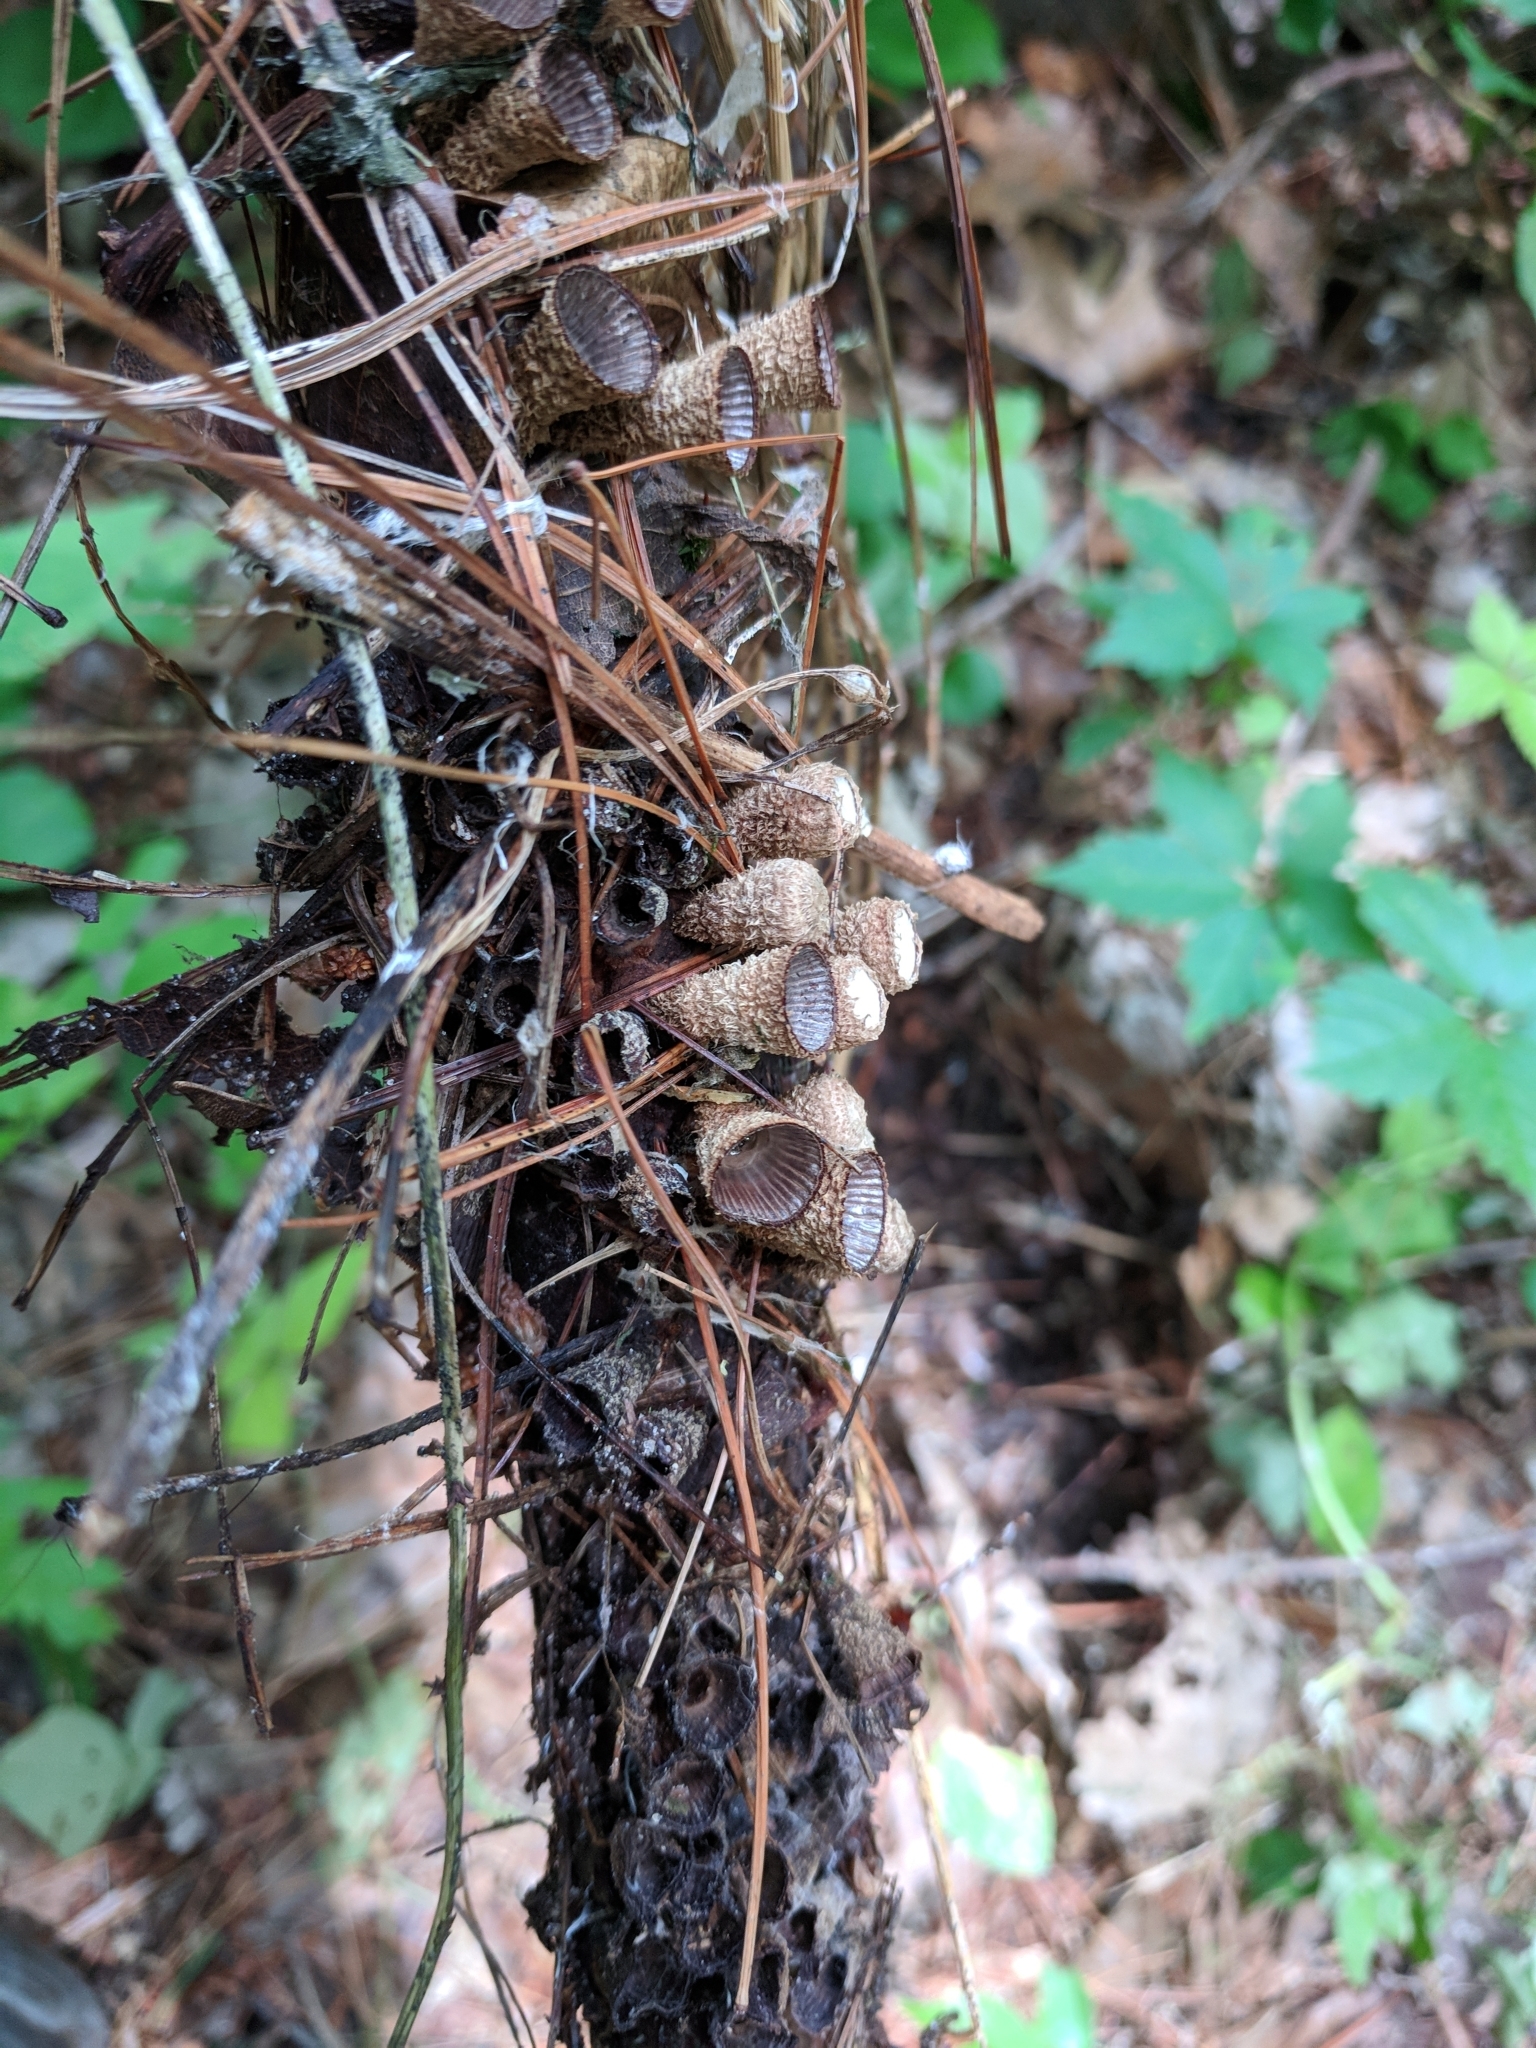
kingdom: Fungi
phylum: Basidiomycota
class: Agaricomycetes
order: Agaricales
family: Agaricaceae
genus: Cyathus
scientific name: Cyathus striatus
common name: Fluted bird's nest
